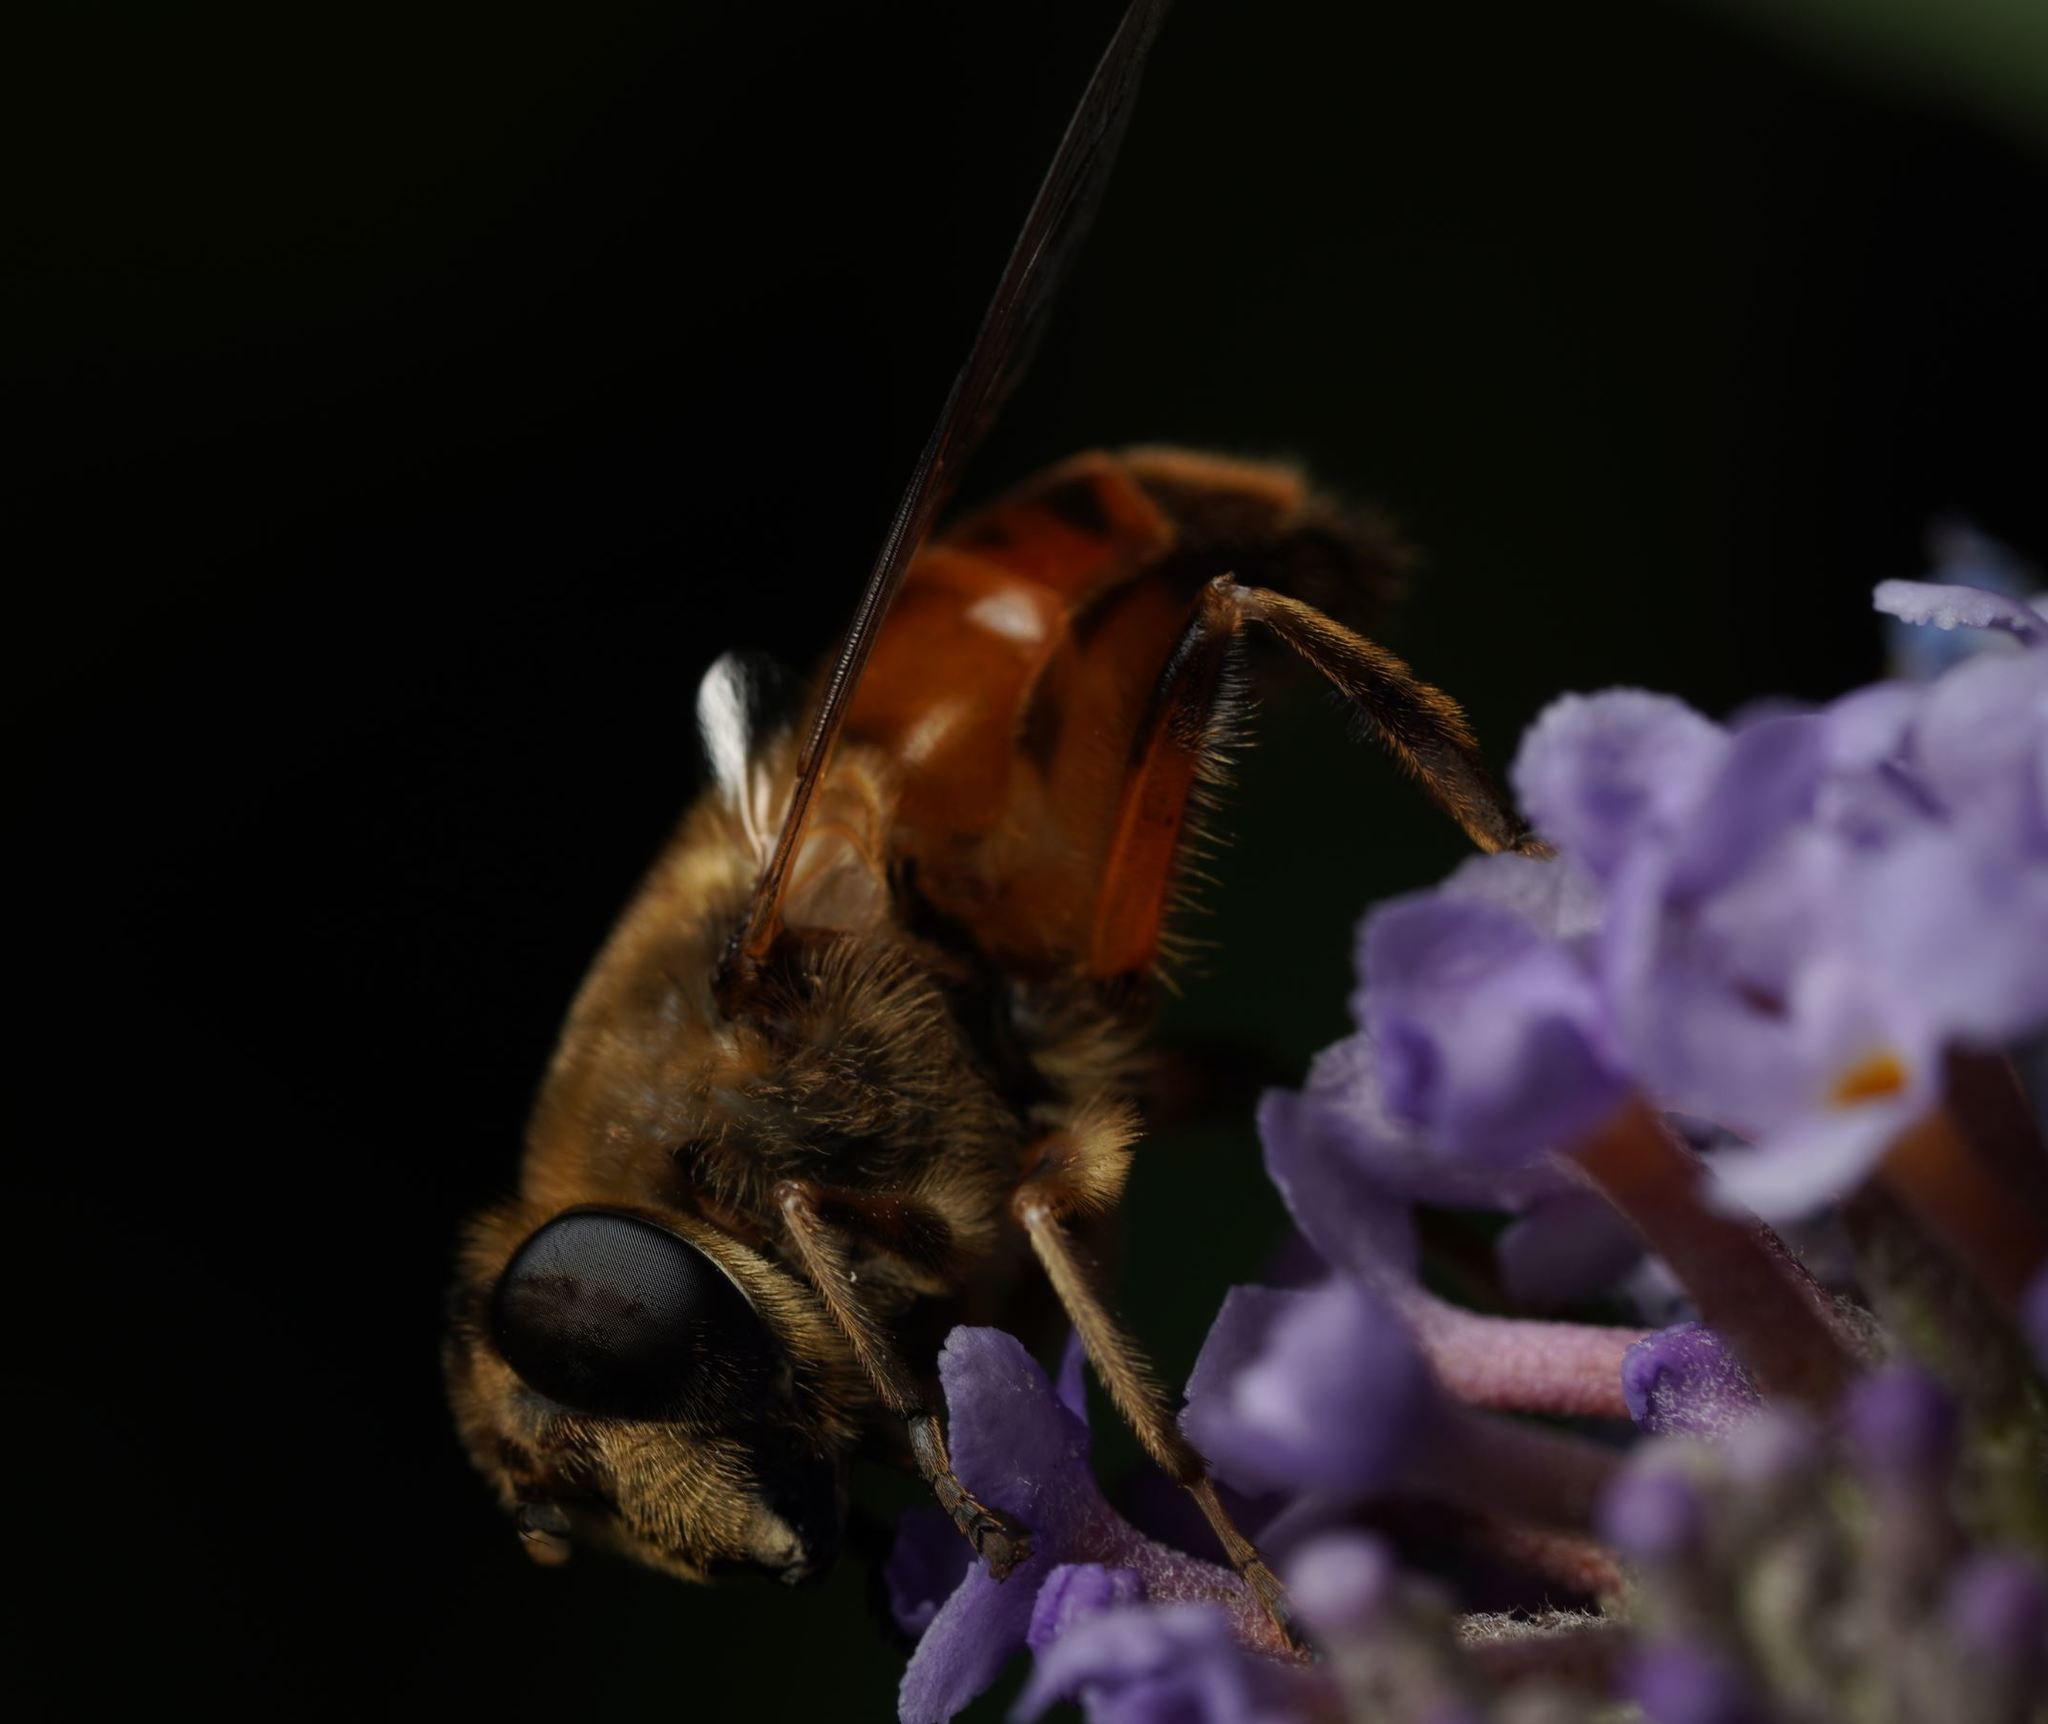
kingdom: Animalia
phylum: Arthropoda
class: Insecta
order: Diptera
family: Syrphidae
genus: Eristalis
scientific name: Eristalis tenax
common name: Drone fly
